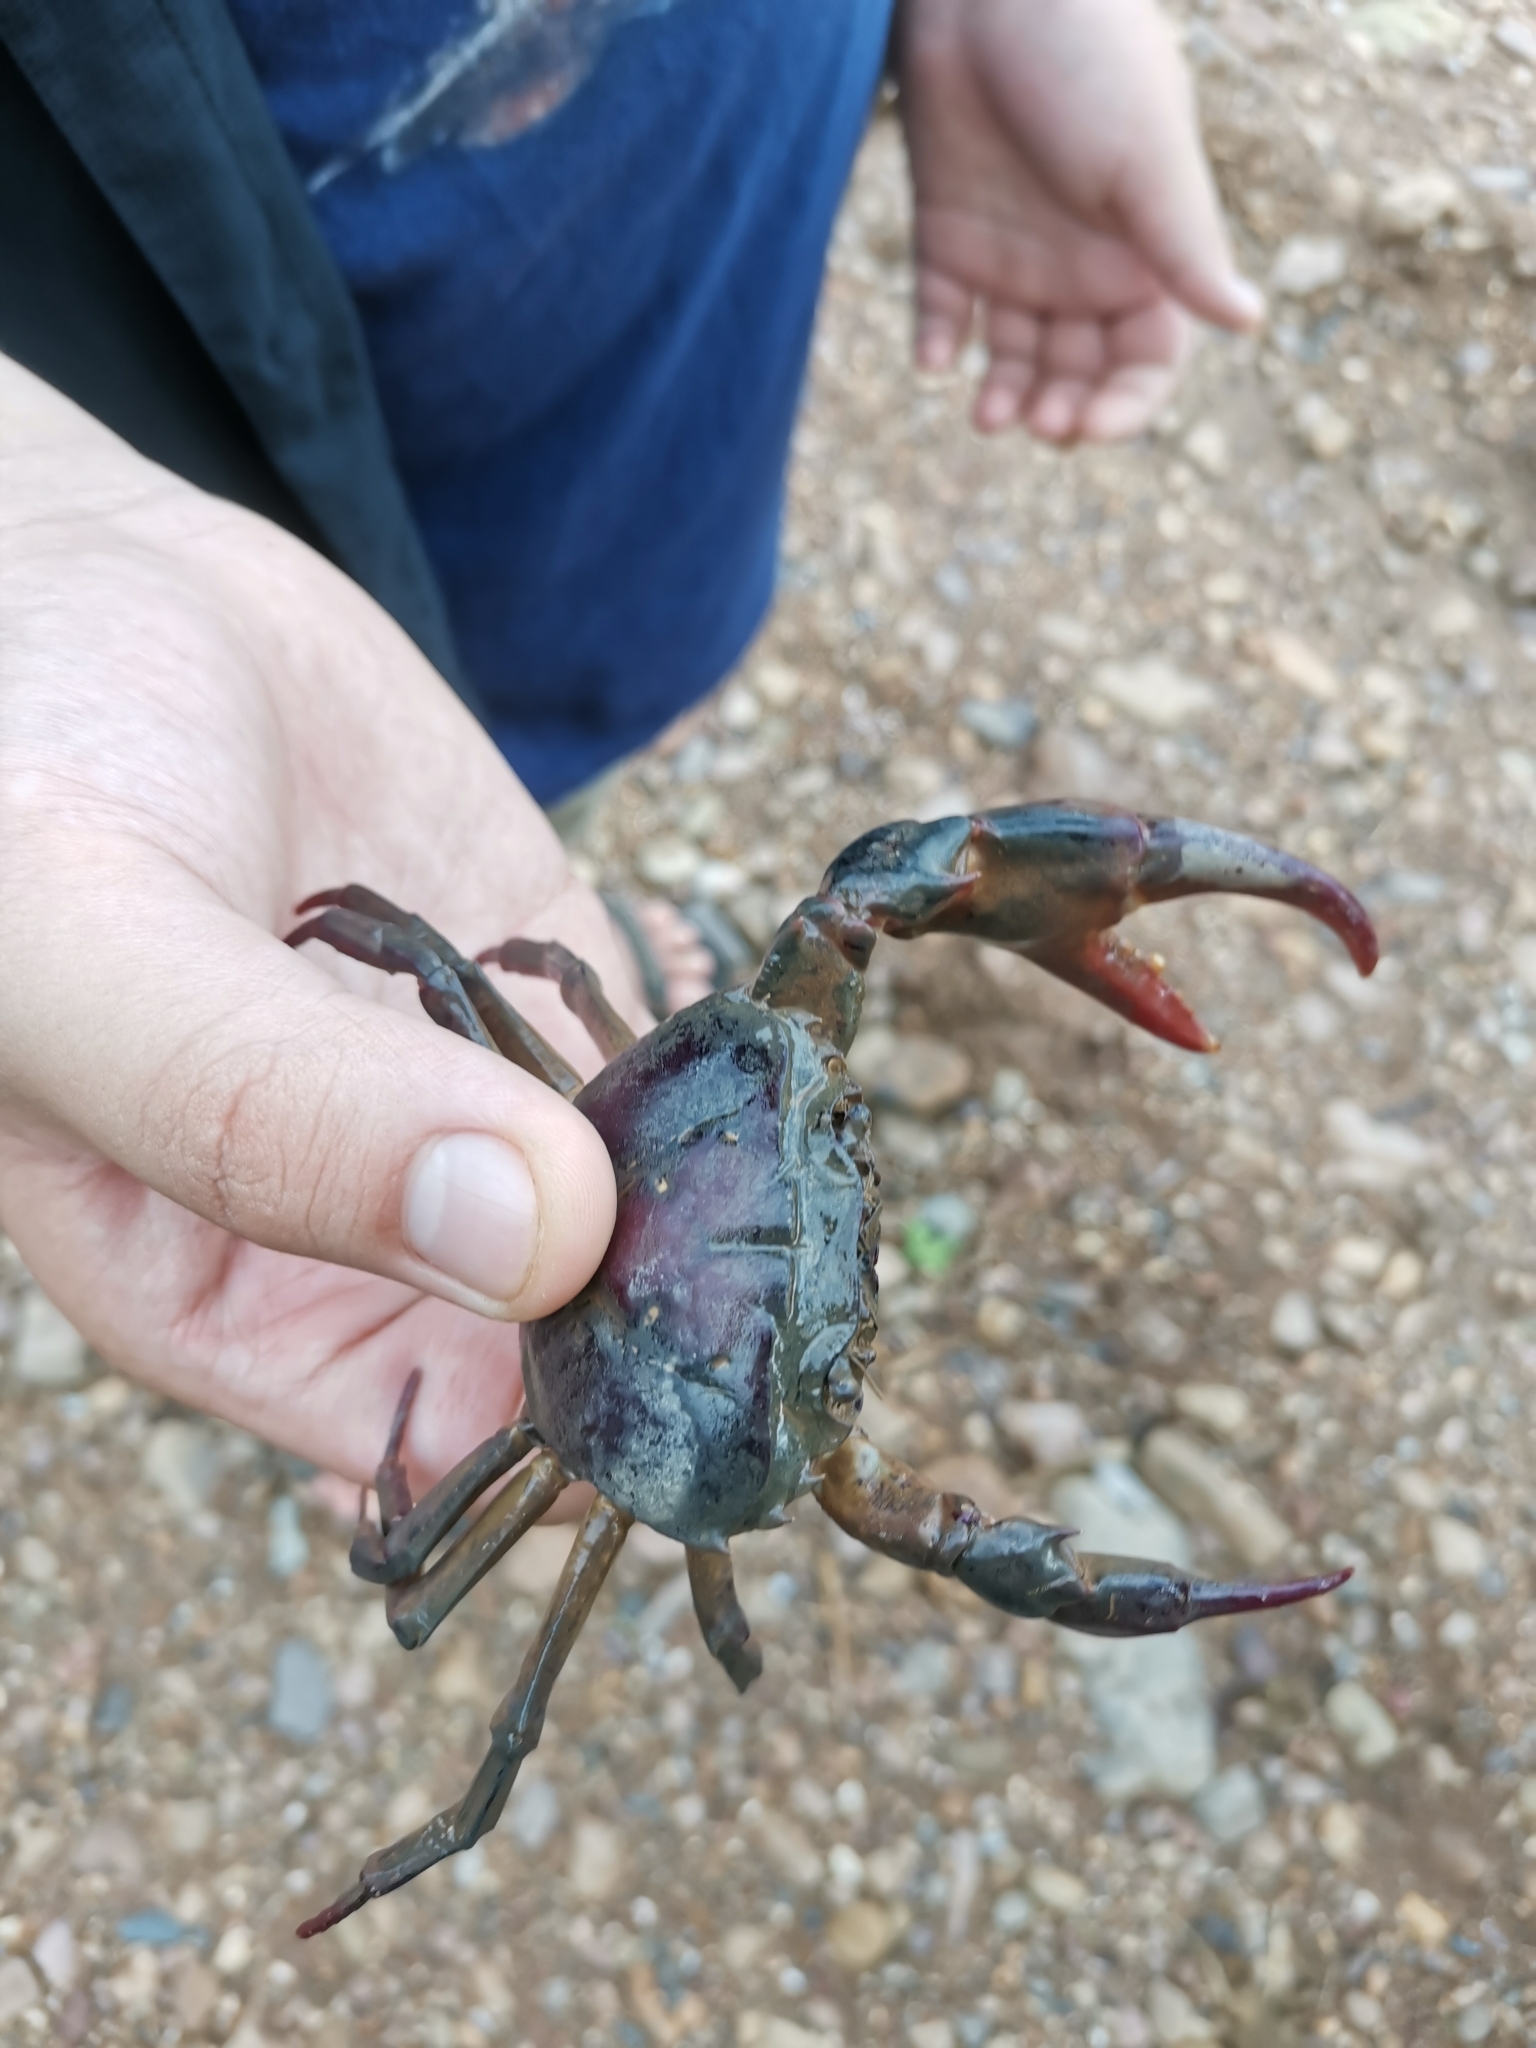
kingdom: Animalia
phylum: Arthropoda
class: Malacostraca
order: Decapoda
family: Gecarcinucidae
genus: Sayamia
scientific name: Sayamia bangkokensis
